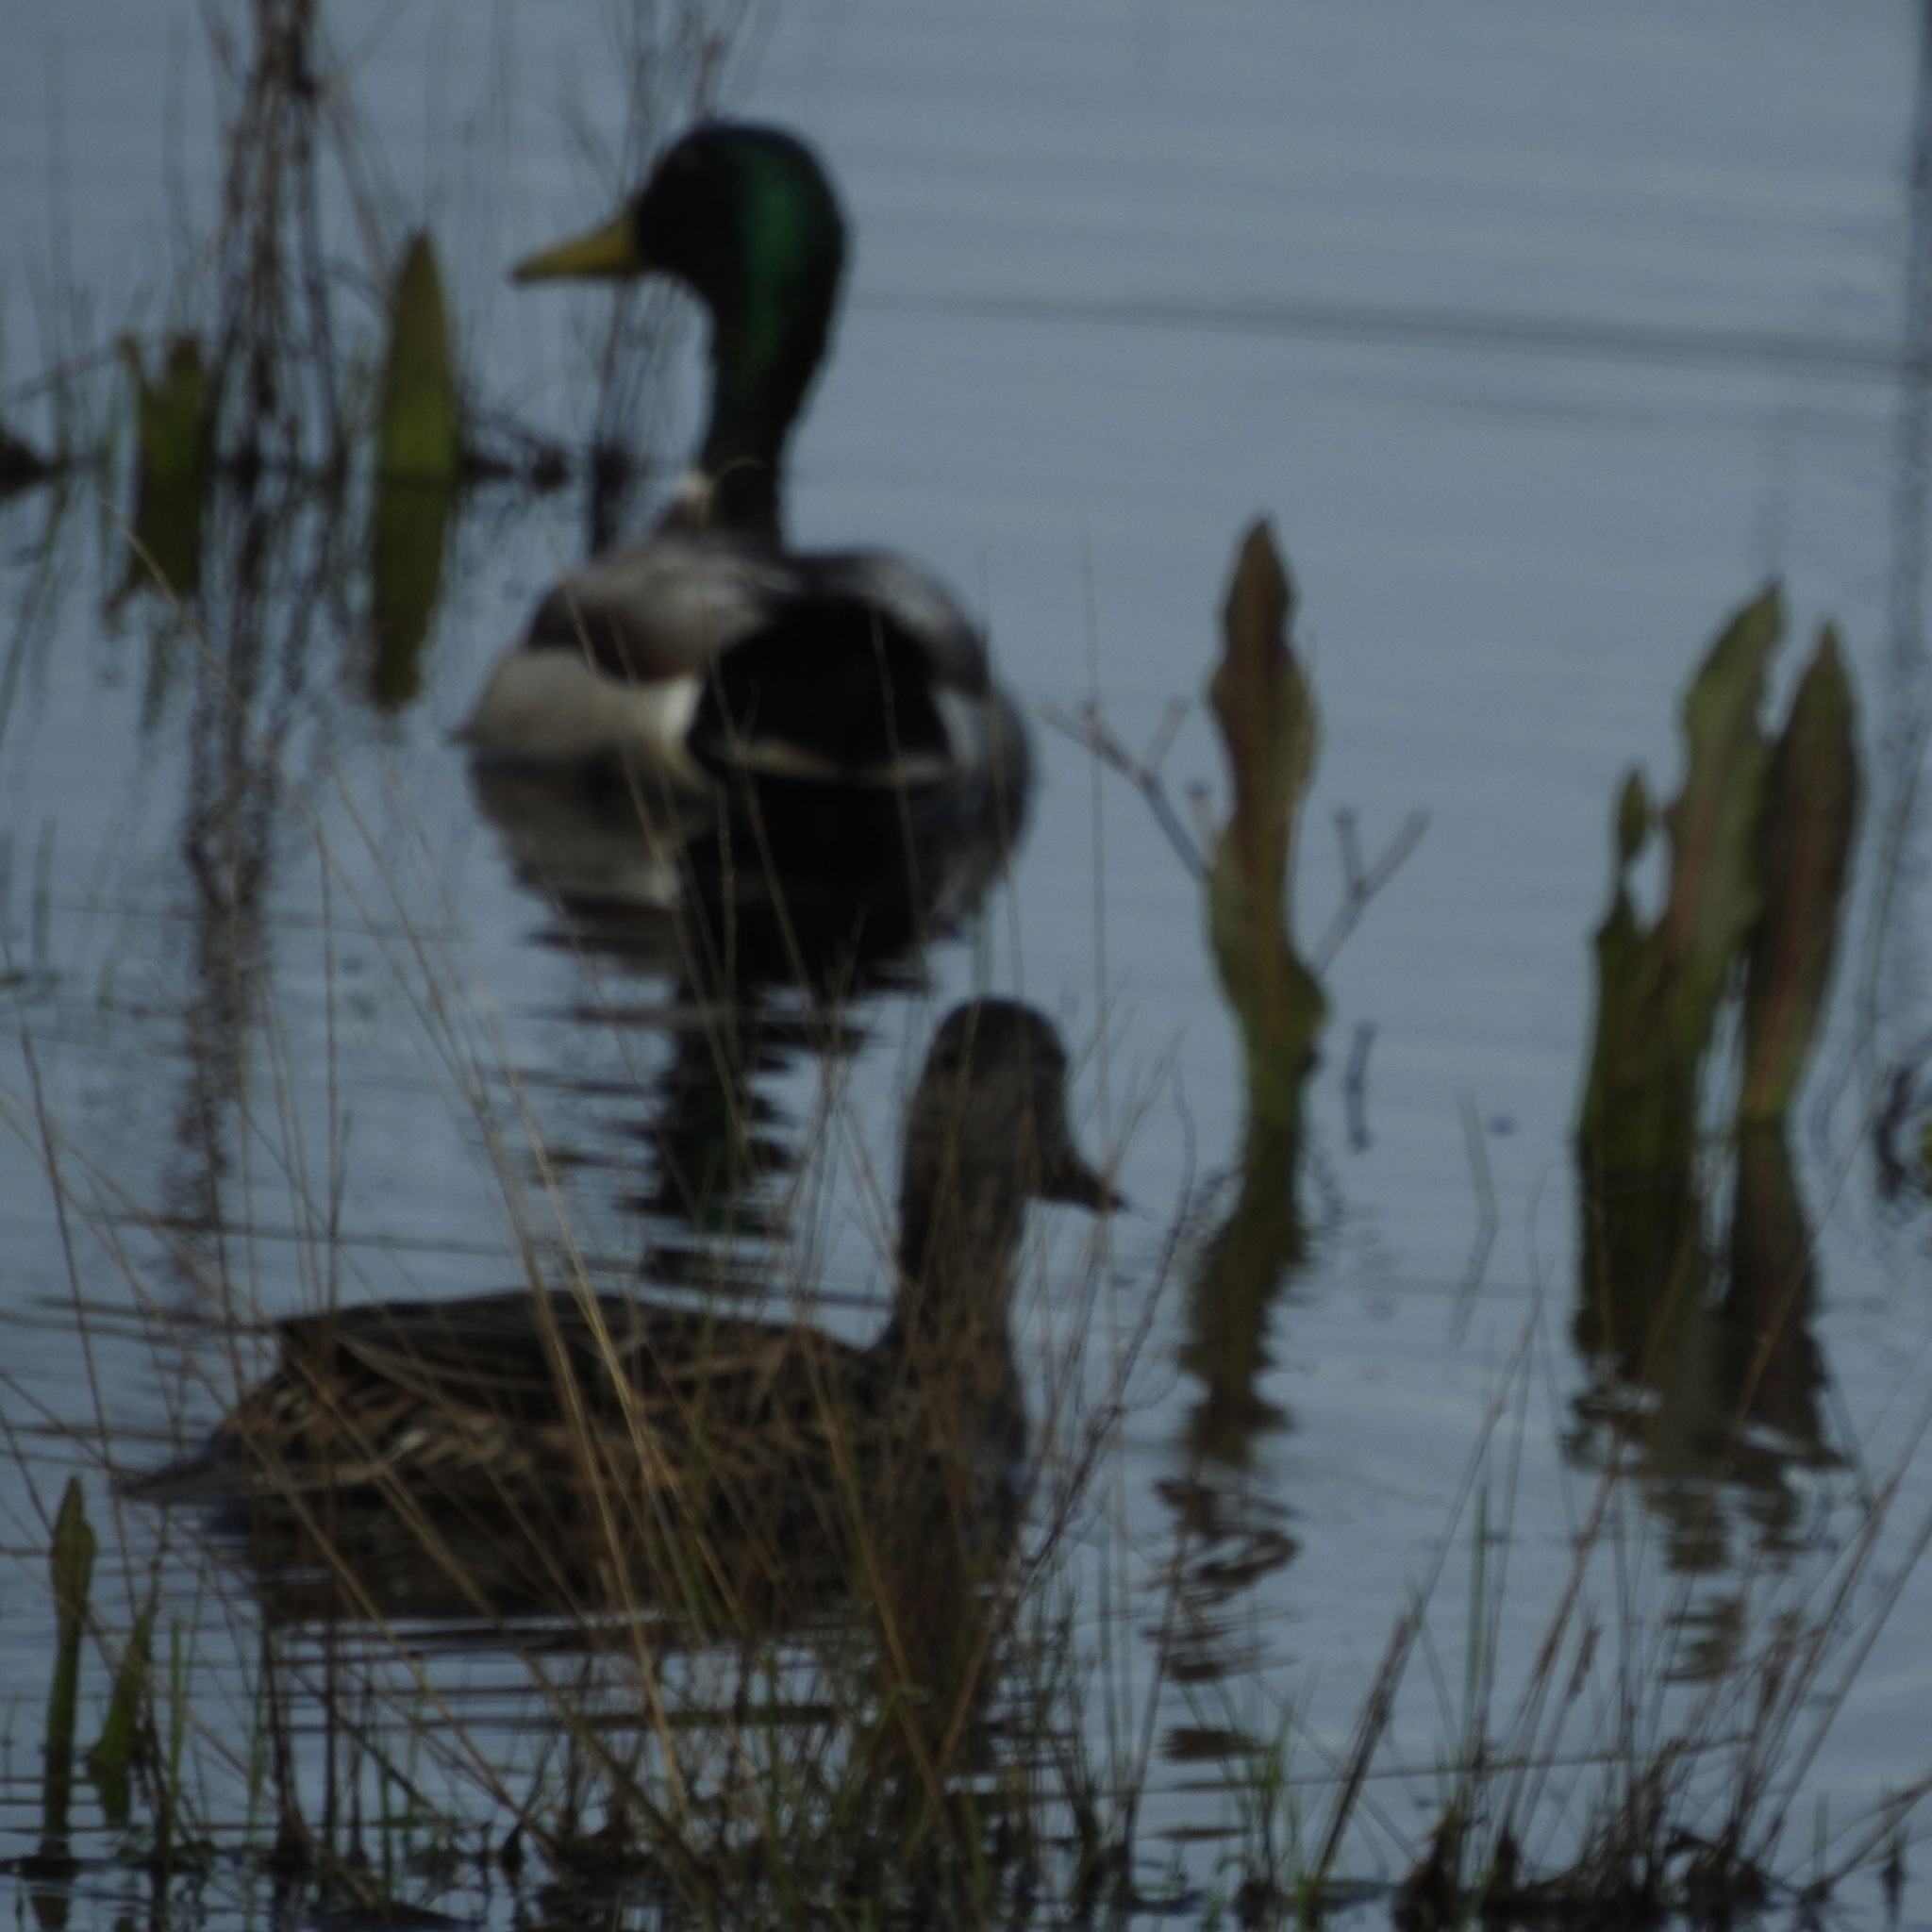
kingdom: Animalia
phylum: Chordata
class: Aves
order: Anseriformes
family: Anatidae
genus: Anas
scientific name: Anas platyrhynchos
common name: Mallard
